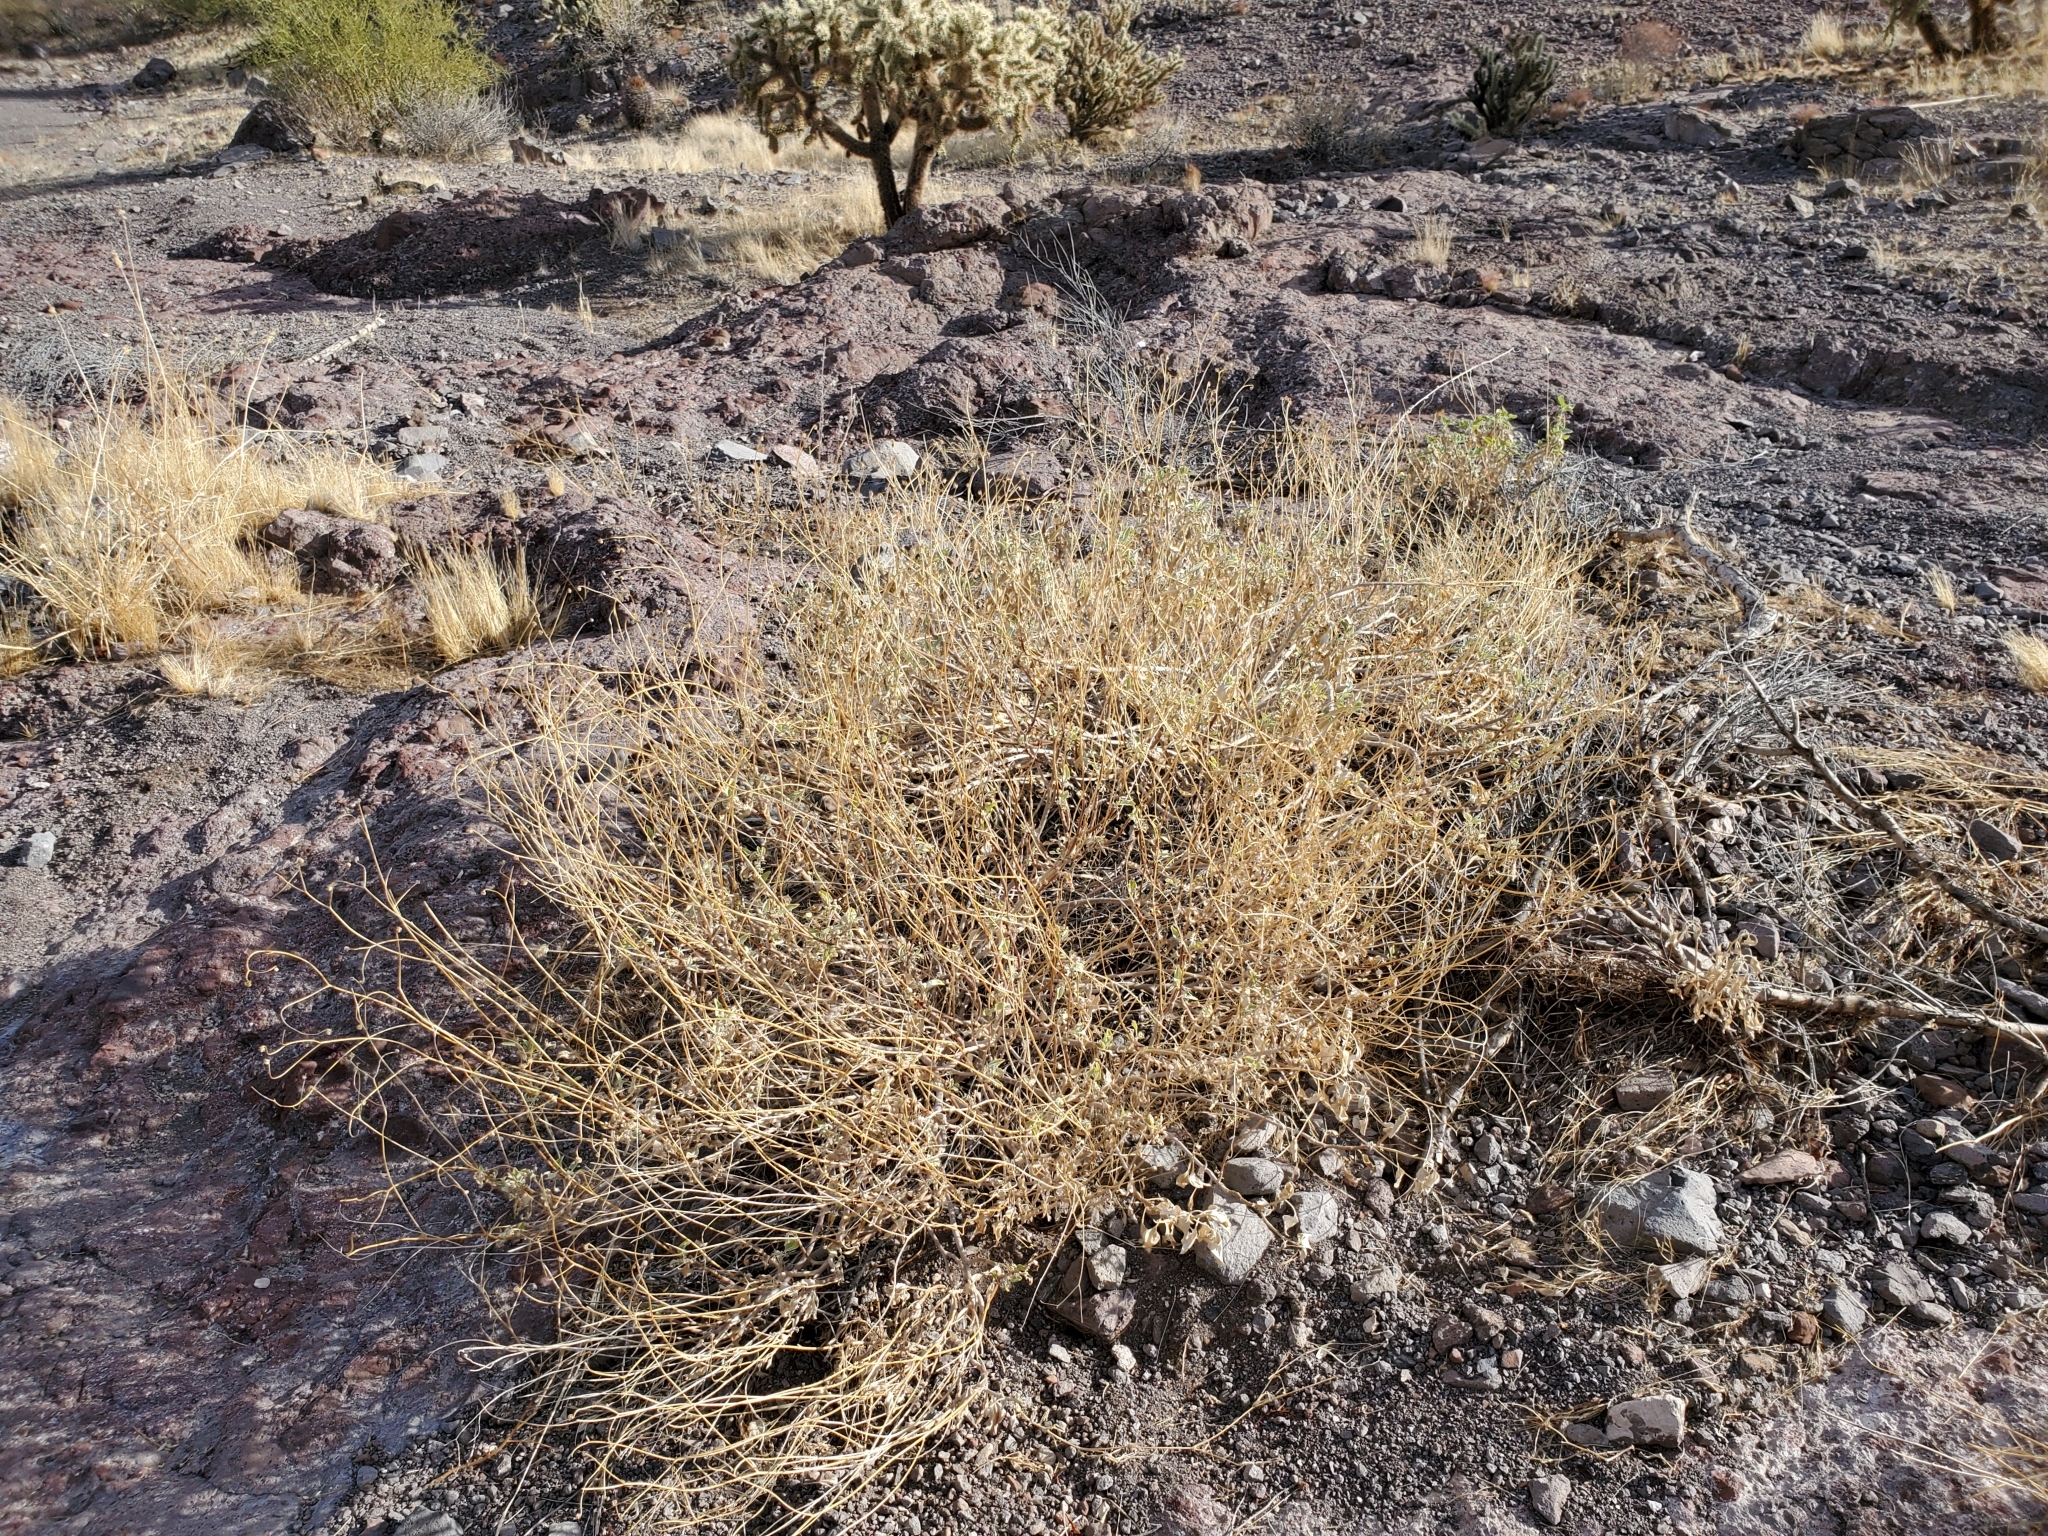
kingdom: Plantae
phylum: Tracheophyta
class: Magnoliopsida
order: Asterales
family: Asteraceae
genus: Encelia
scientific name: Encelia farinosa
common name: Brittlebush
